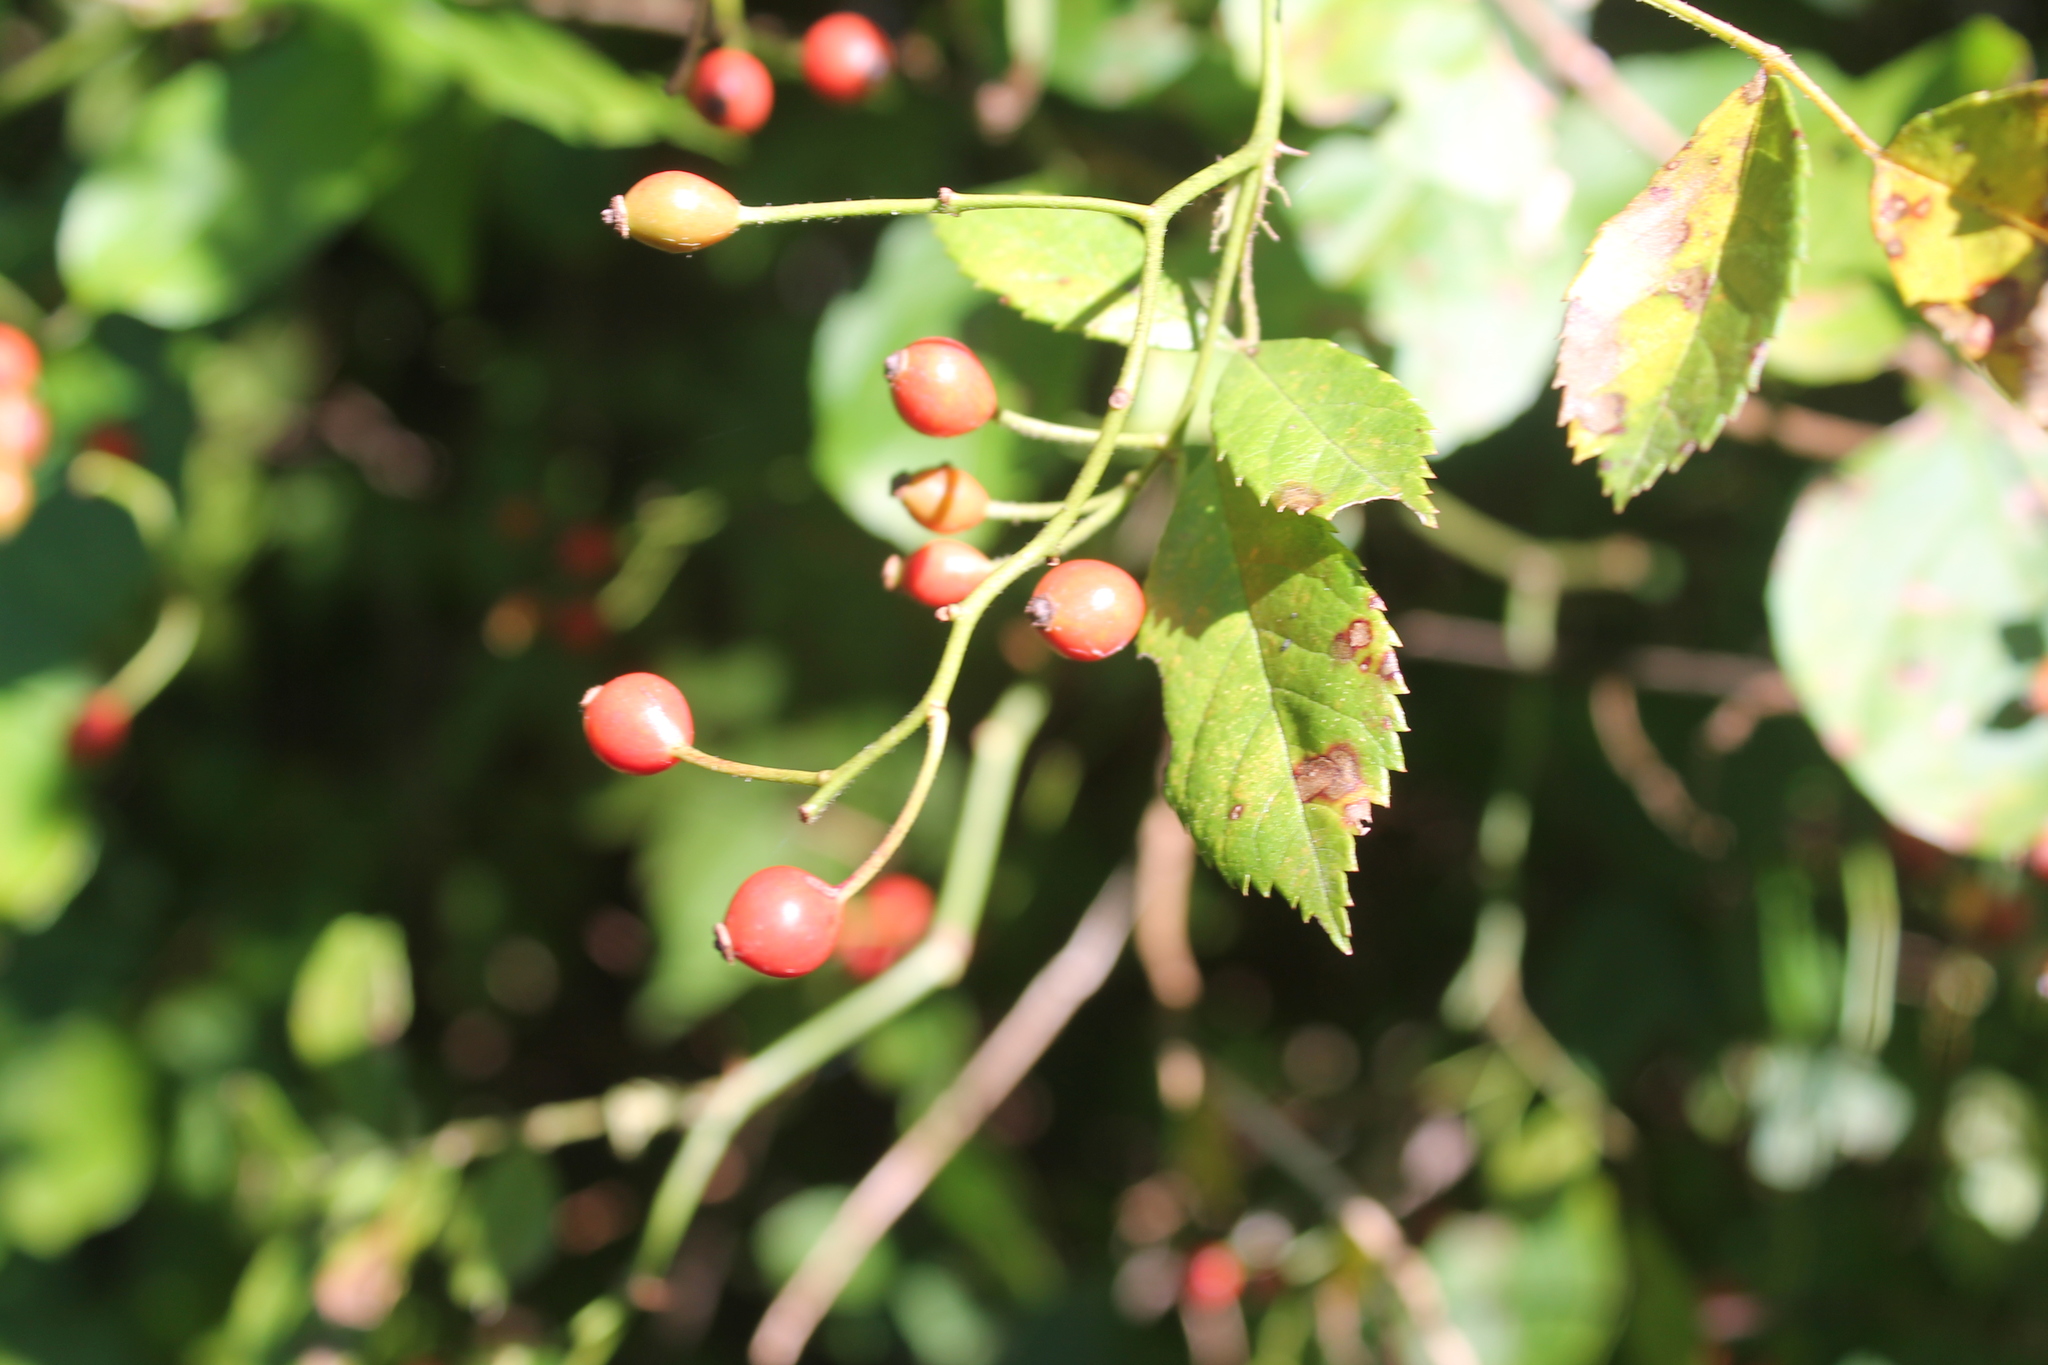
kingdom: Plantae
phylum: Tracheophyta
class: Magnoliopsida
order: Rosales
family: Rosaceae
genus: Rosa
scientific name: Rosa multiflora
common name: Multiflora rose
